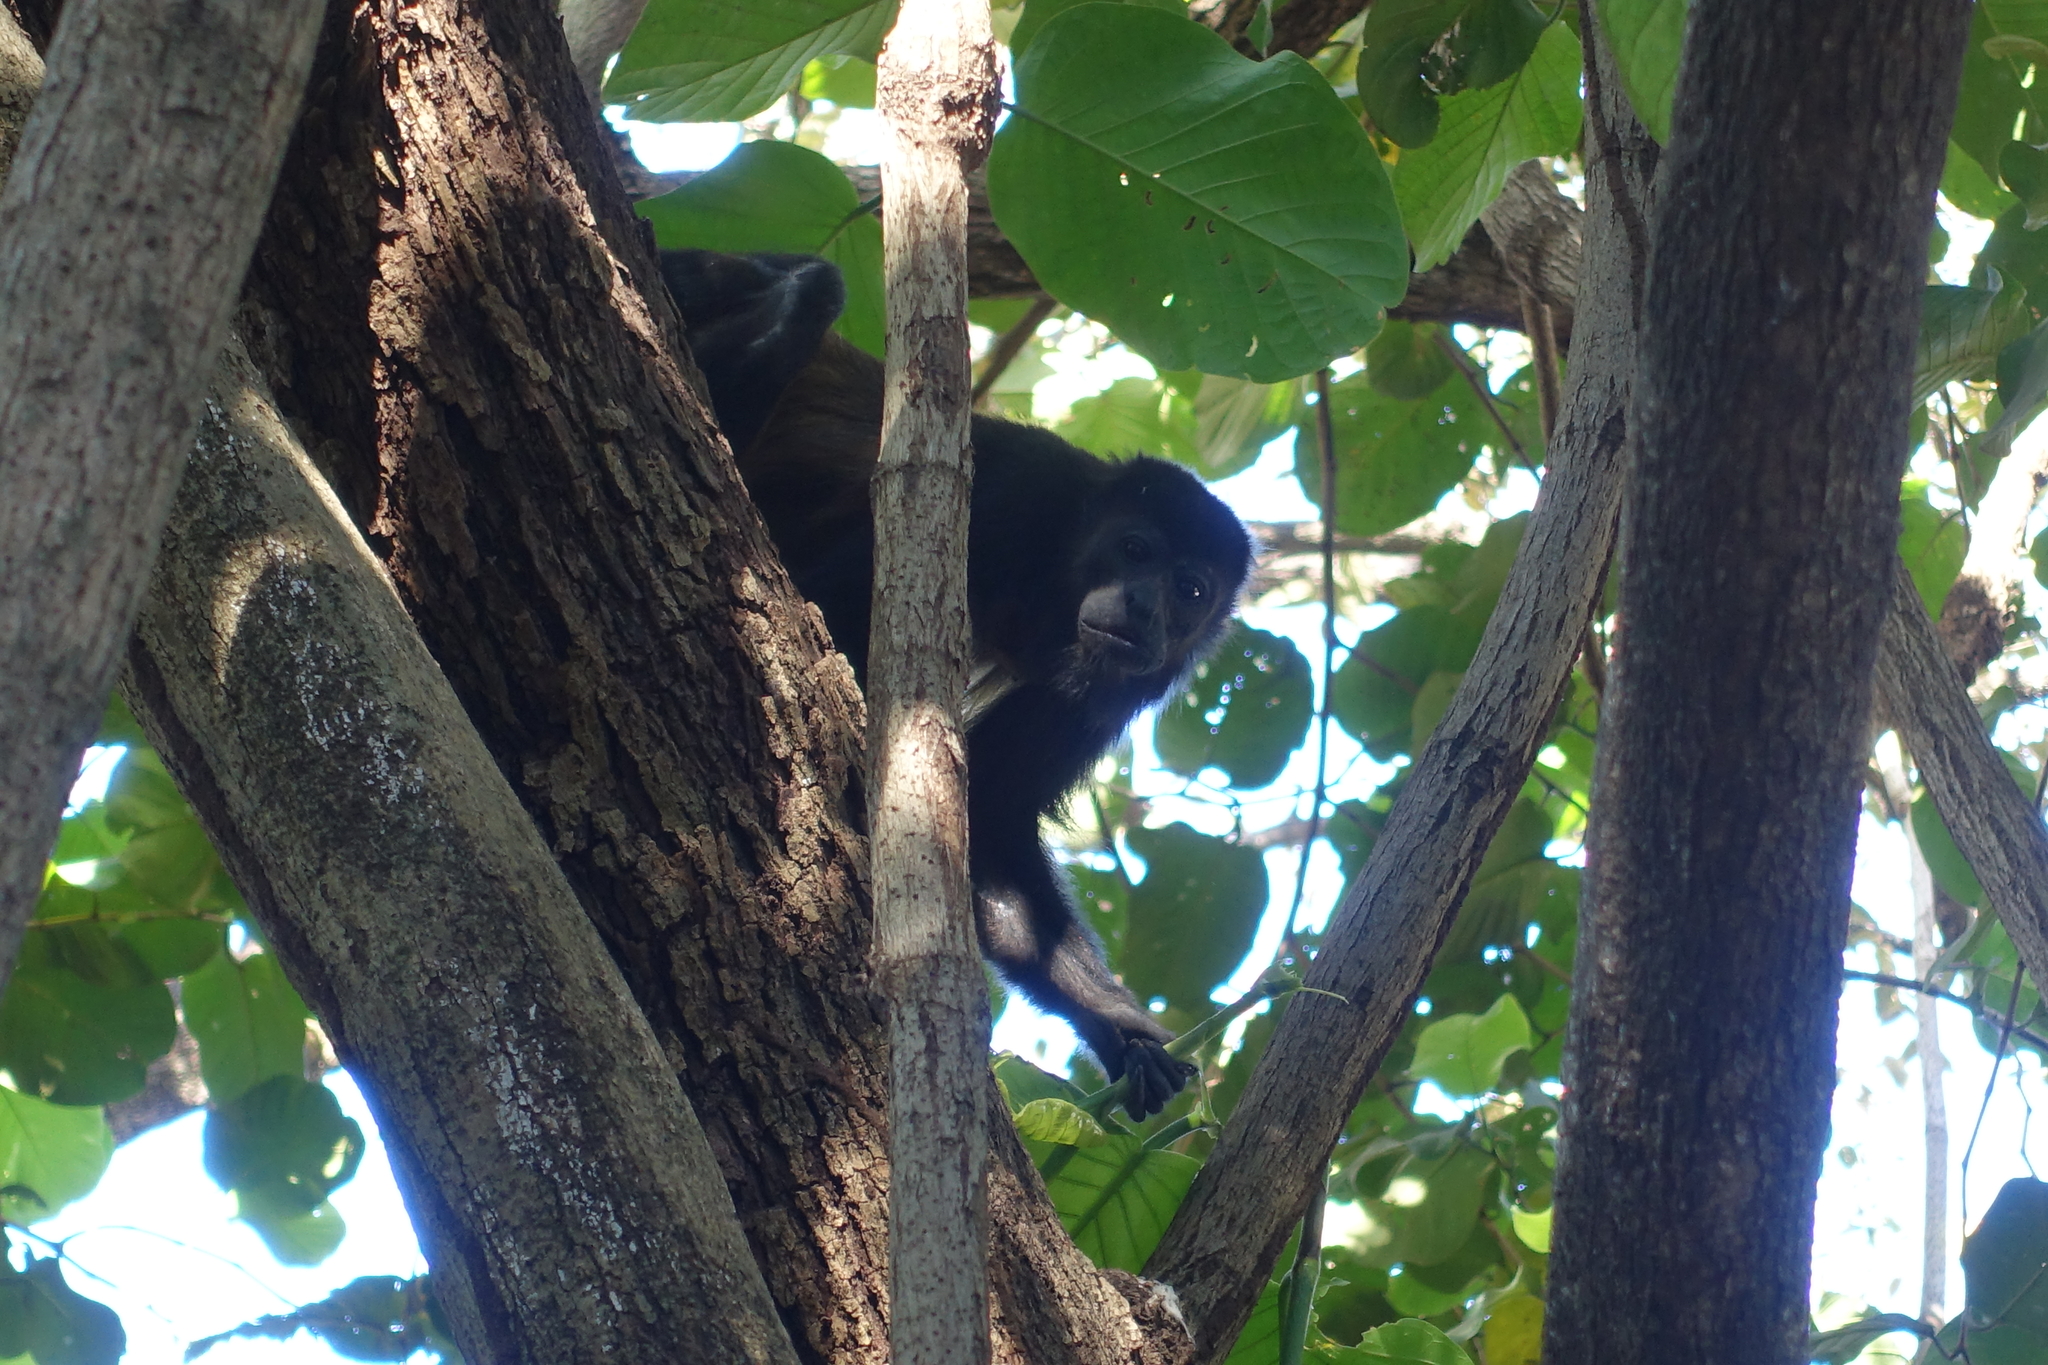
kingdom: Animalia
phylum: Chordata
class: Mammalia
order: Primates
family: Atelidae
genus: Alouatta
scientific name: Alouatta palliata
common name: Mantled howler
